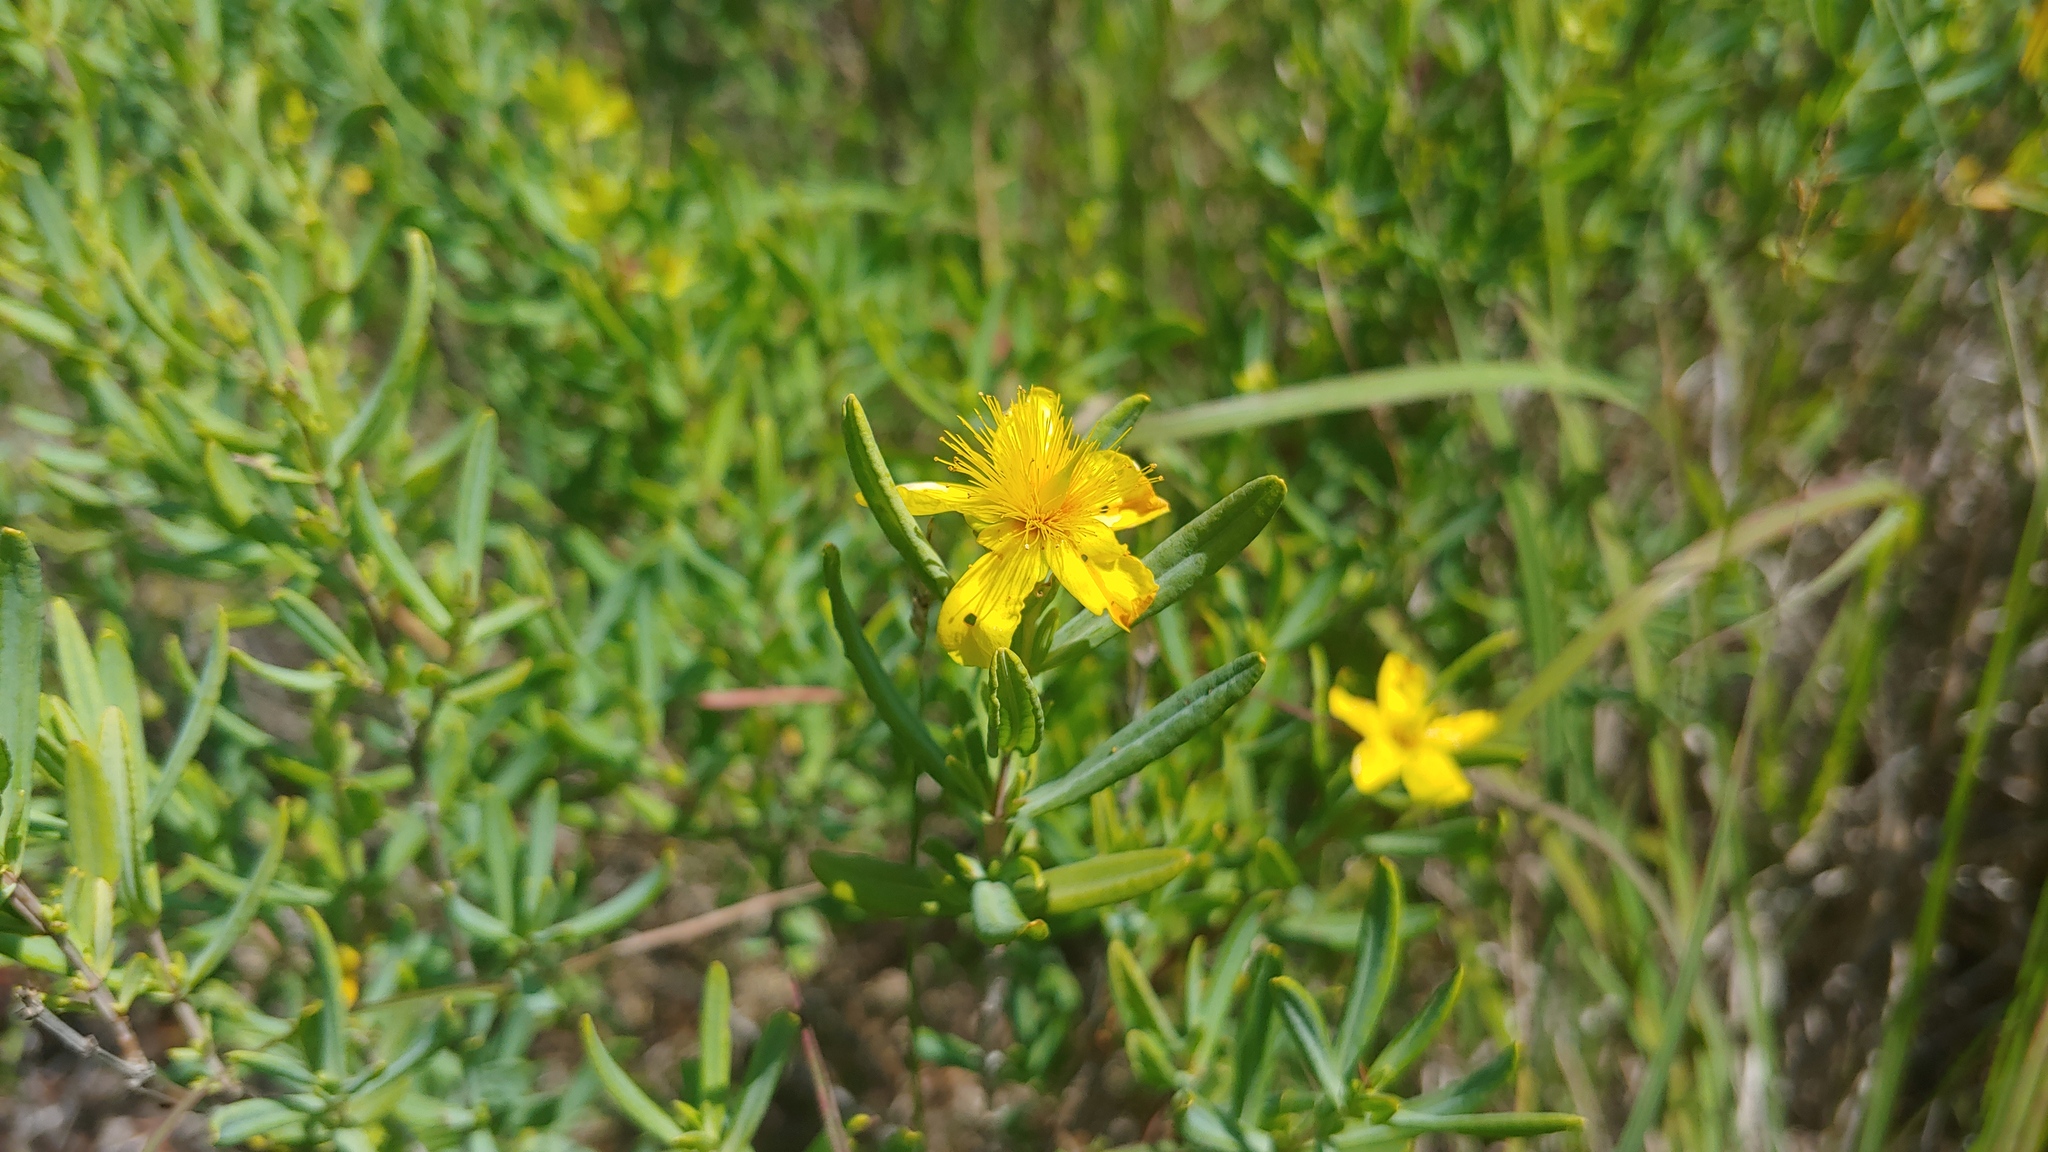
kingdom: Plantae
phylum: Tracheophyta
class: Magnoliopsida
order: Malpighiales
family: Hypericaceae
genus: Hypericum
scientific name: Hypericum kalmianum
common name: Kalm's st. john's-wort
